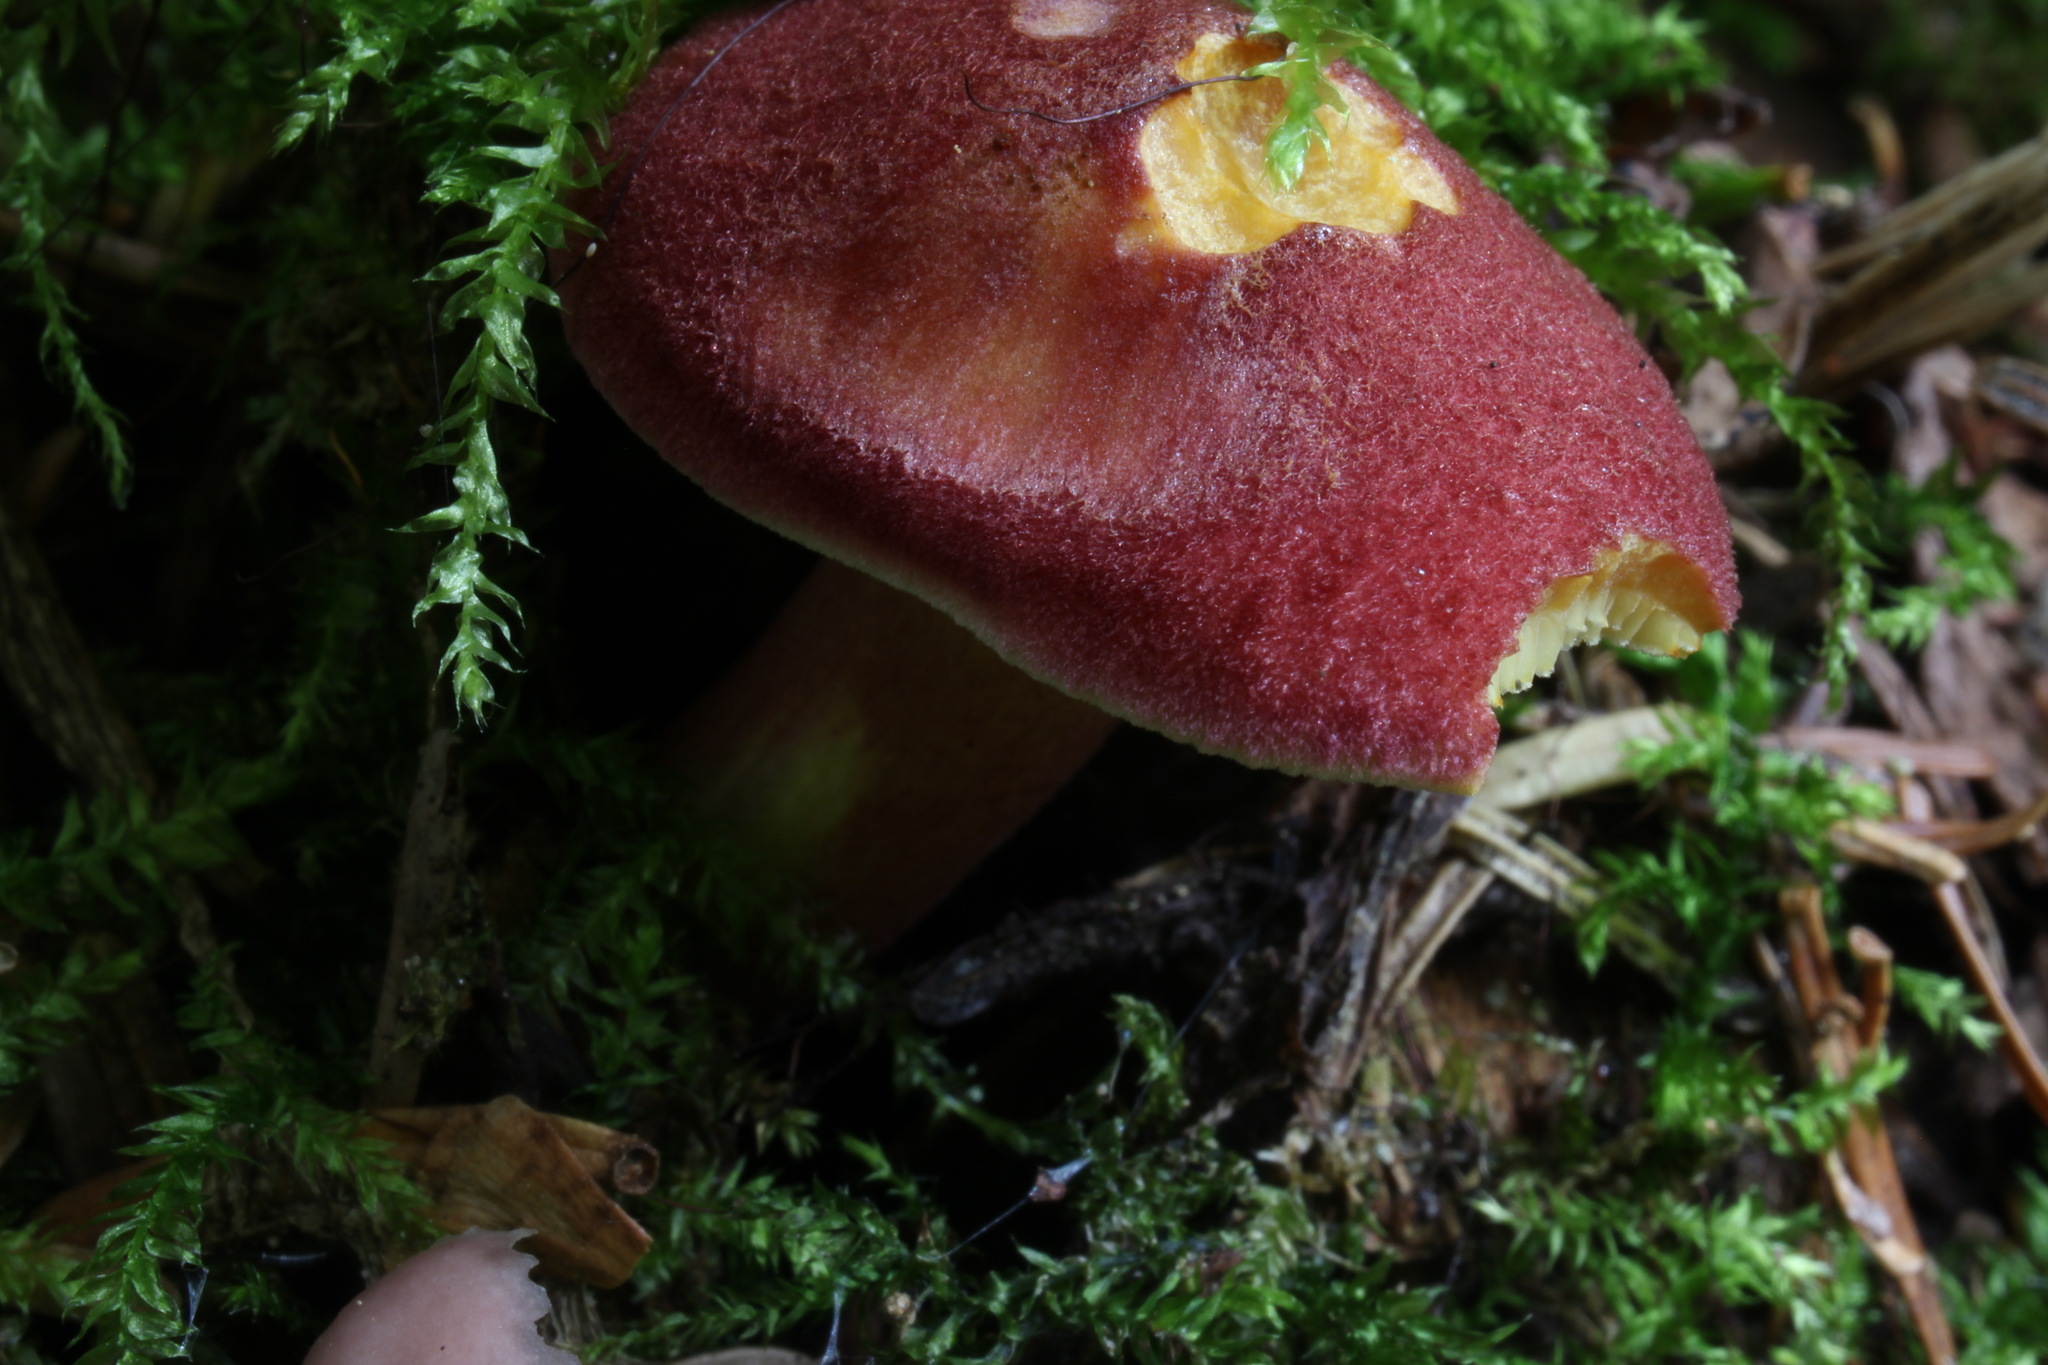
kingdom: Fungi
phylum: Basidiomycota
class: Agaricomycetes
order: Agaricales
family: Tricholomataceae
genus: Tricholomopsis
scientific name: Tricholomopsis rutilans
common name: Plums and custard
